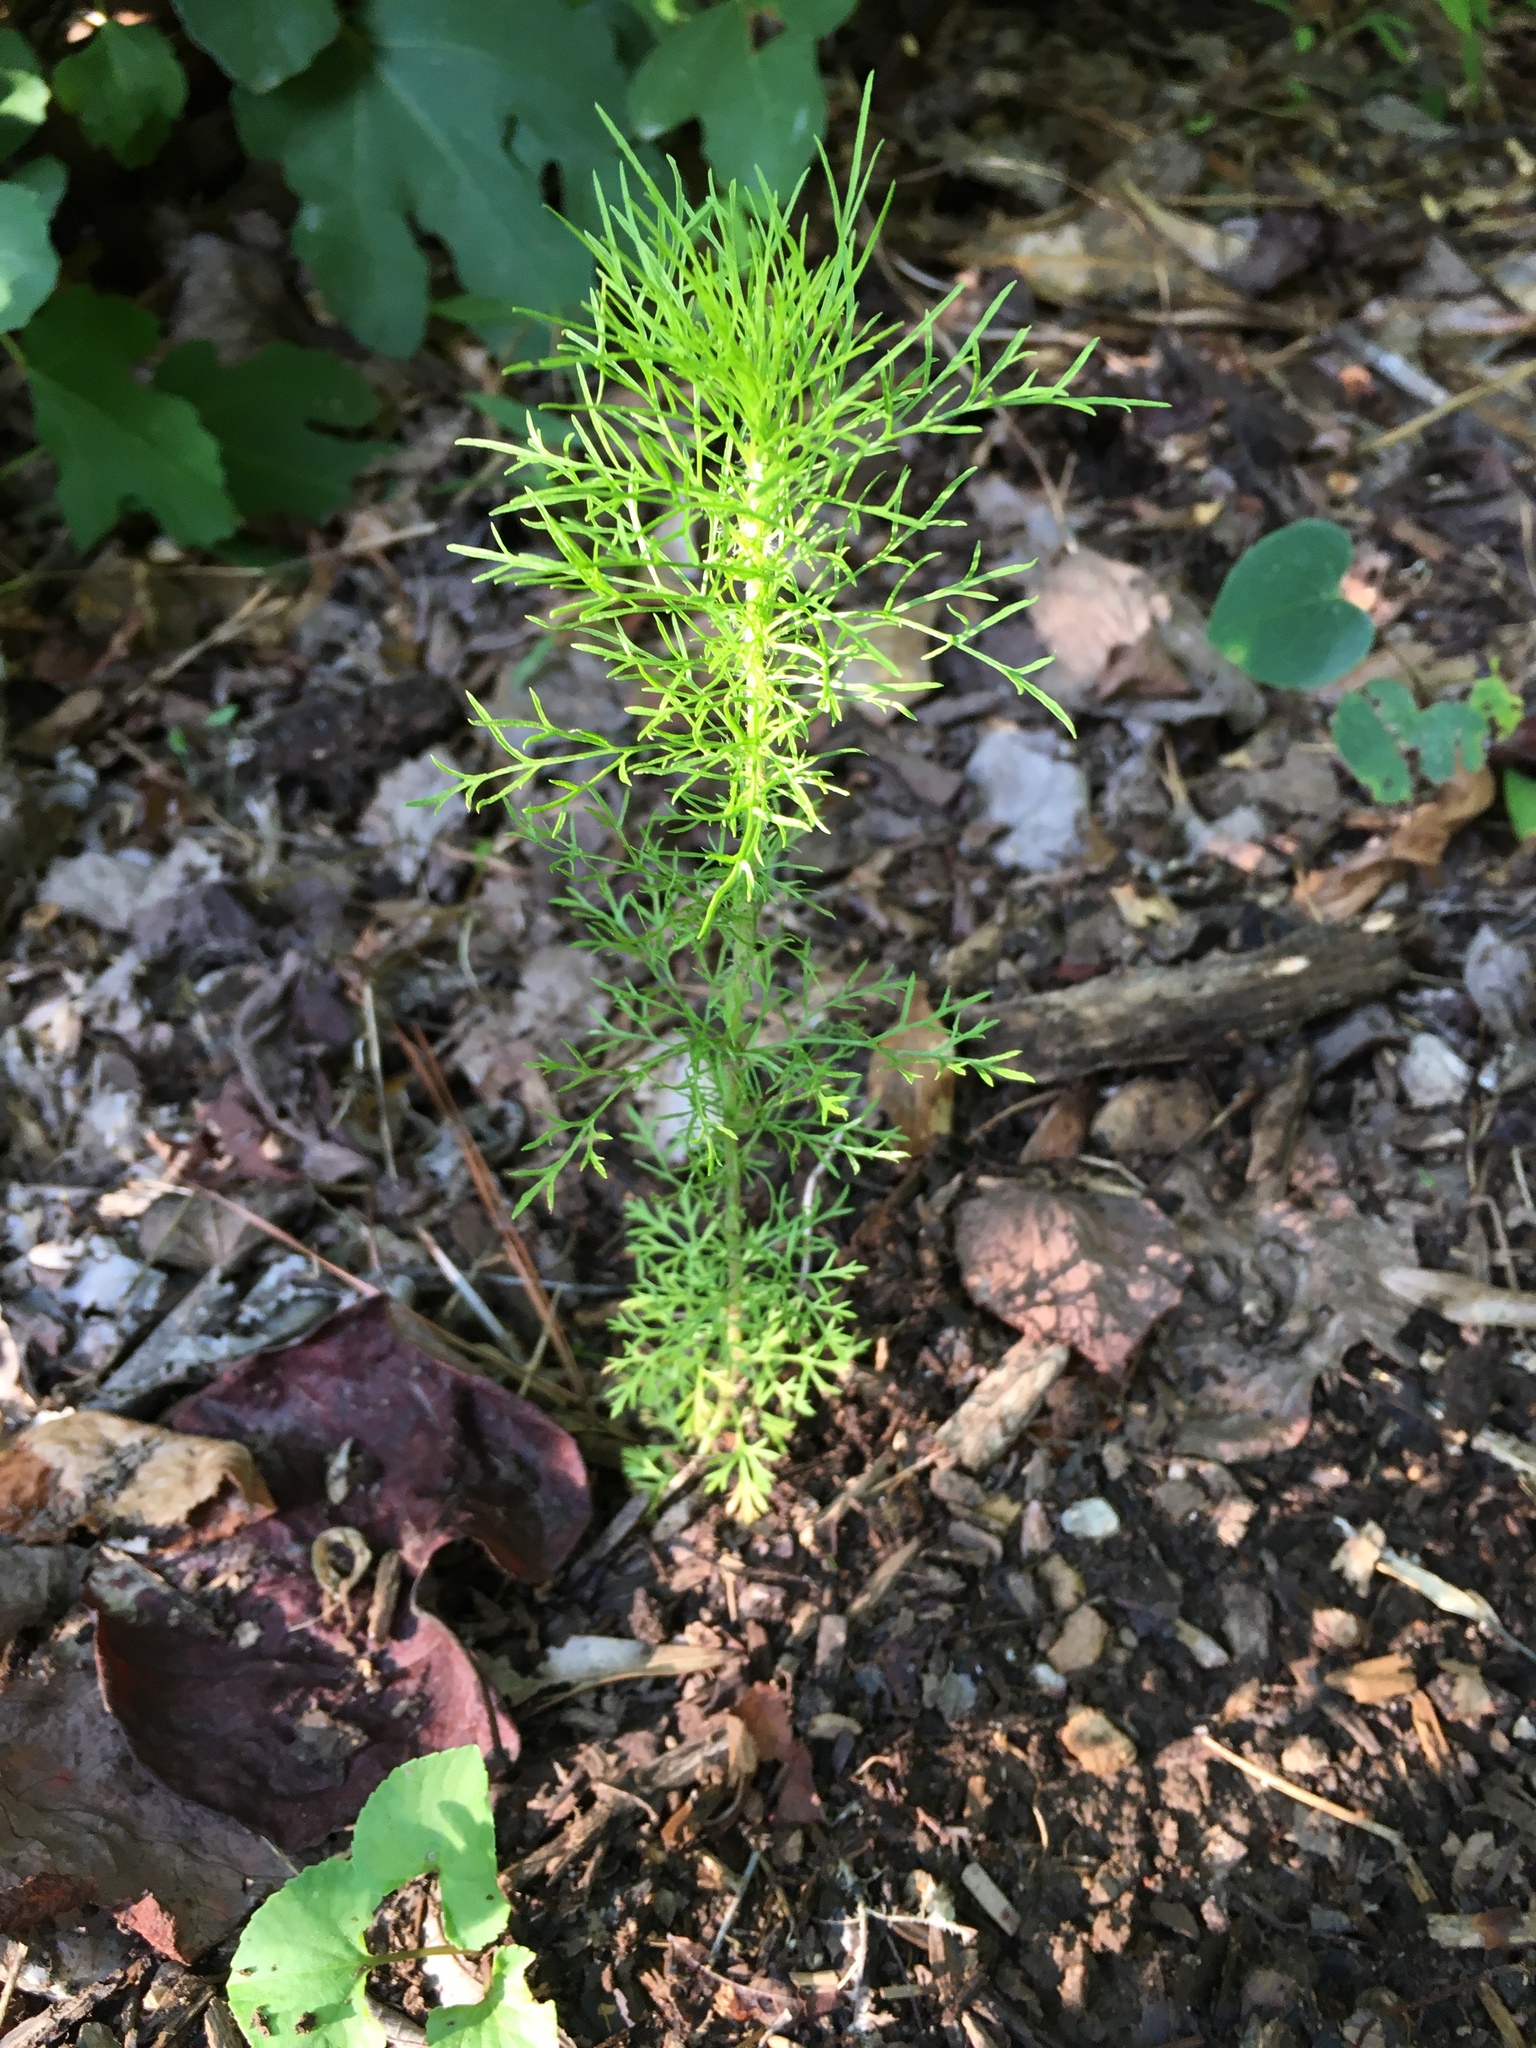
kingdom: Plantae
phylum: Tracheophyta
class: Magnoliopsida
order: Asterales
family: Asteraceae
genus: Eupatorium
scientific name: Eupatorium capillifolium
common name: Dog-fennel
